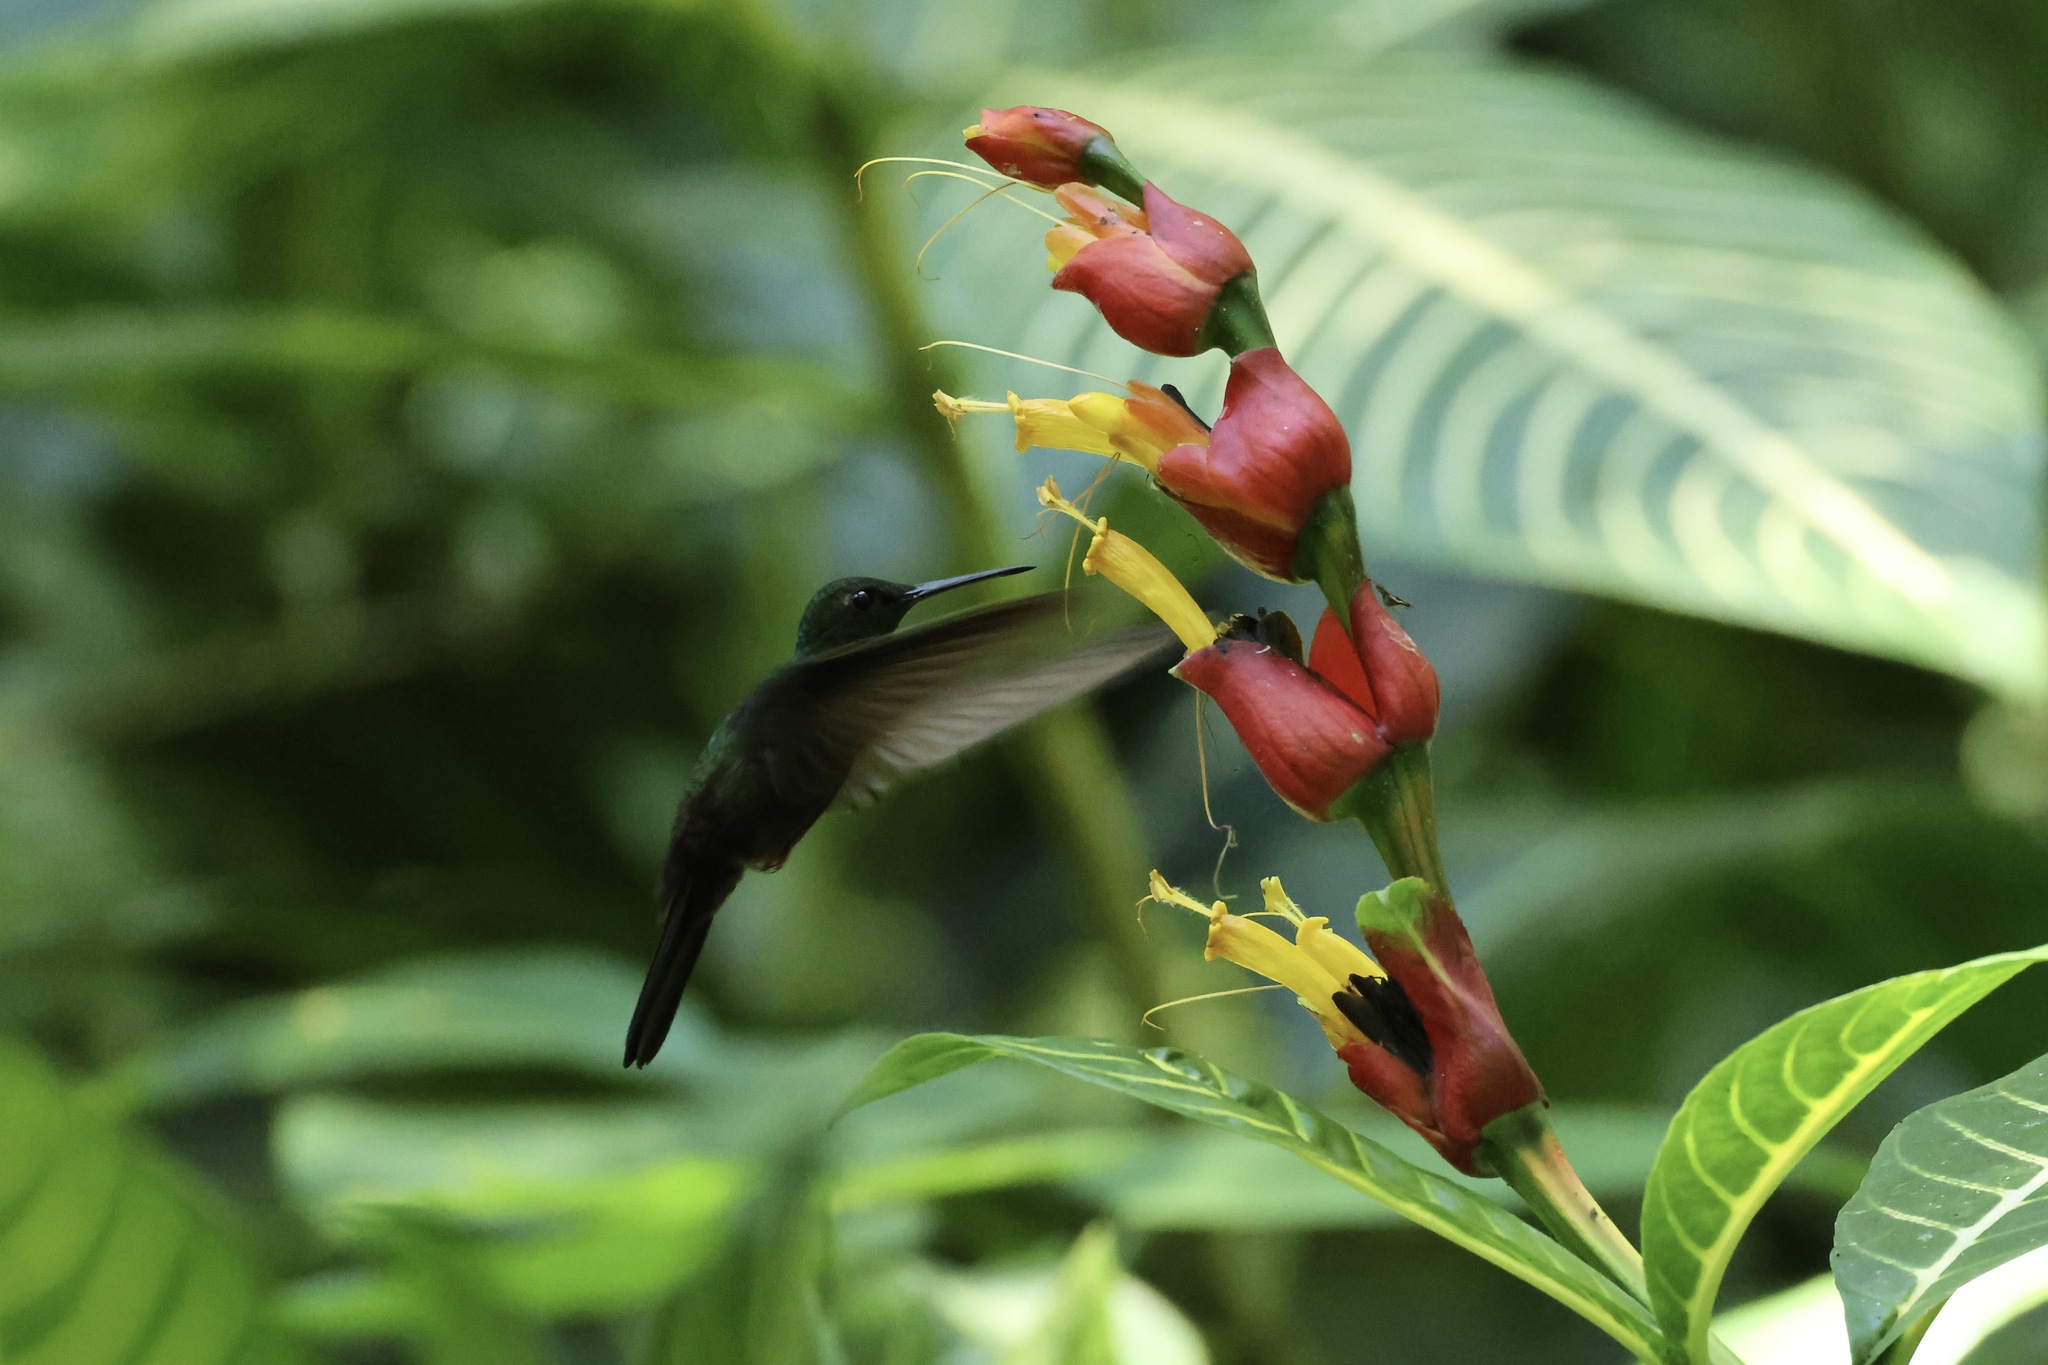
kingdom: Animalia
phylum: Chordata
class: Aves
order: Apodiformes
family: Trochilidae
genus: Chalybura
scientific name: Chalybura urochrysia
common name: Bronze-tailed plumeleteer
